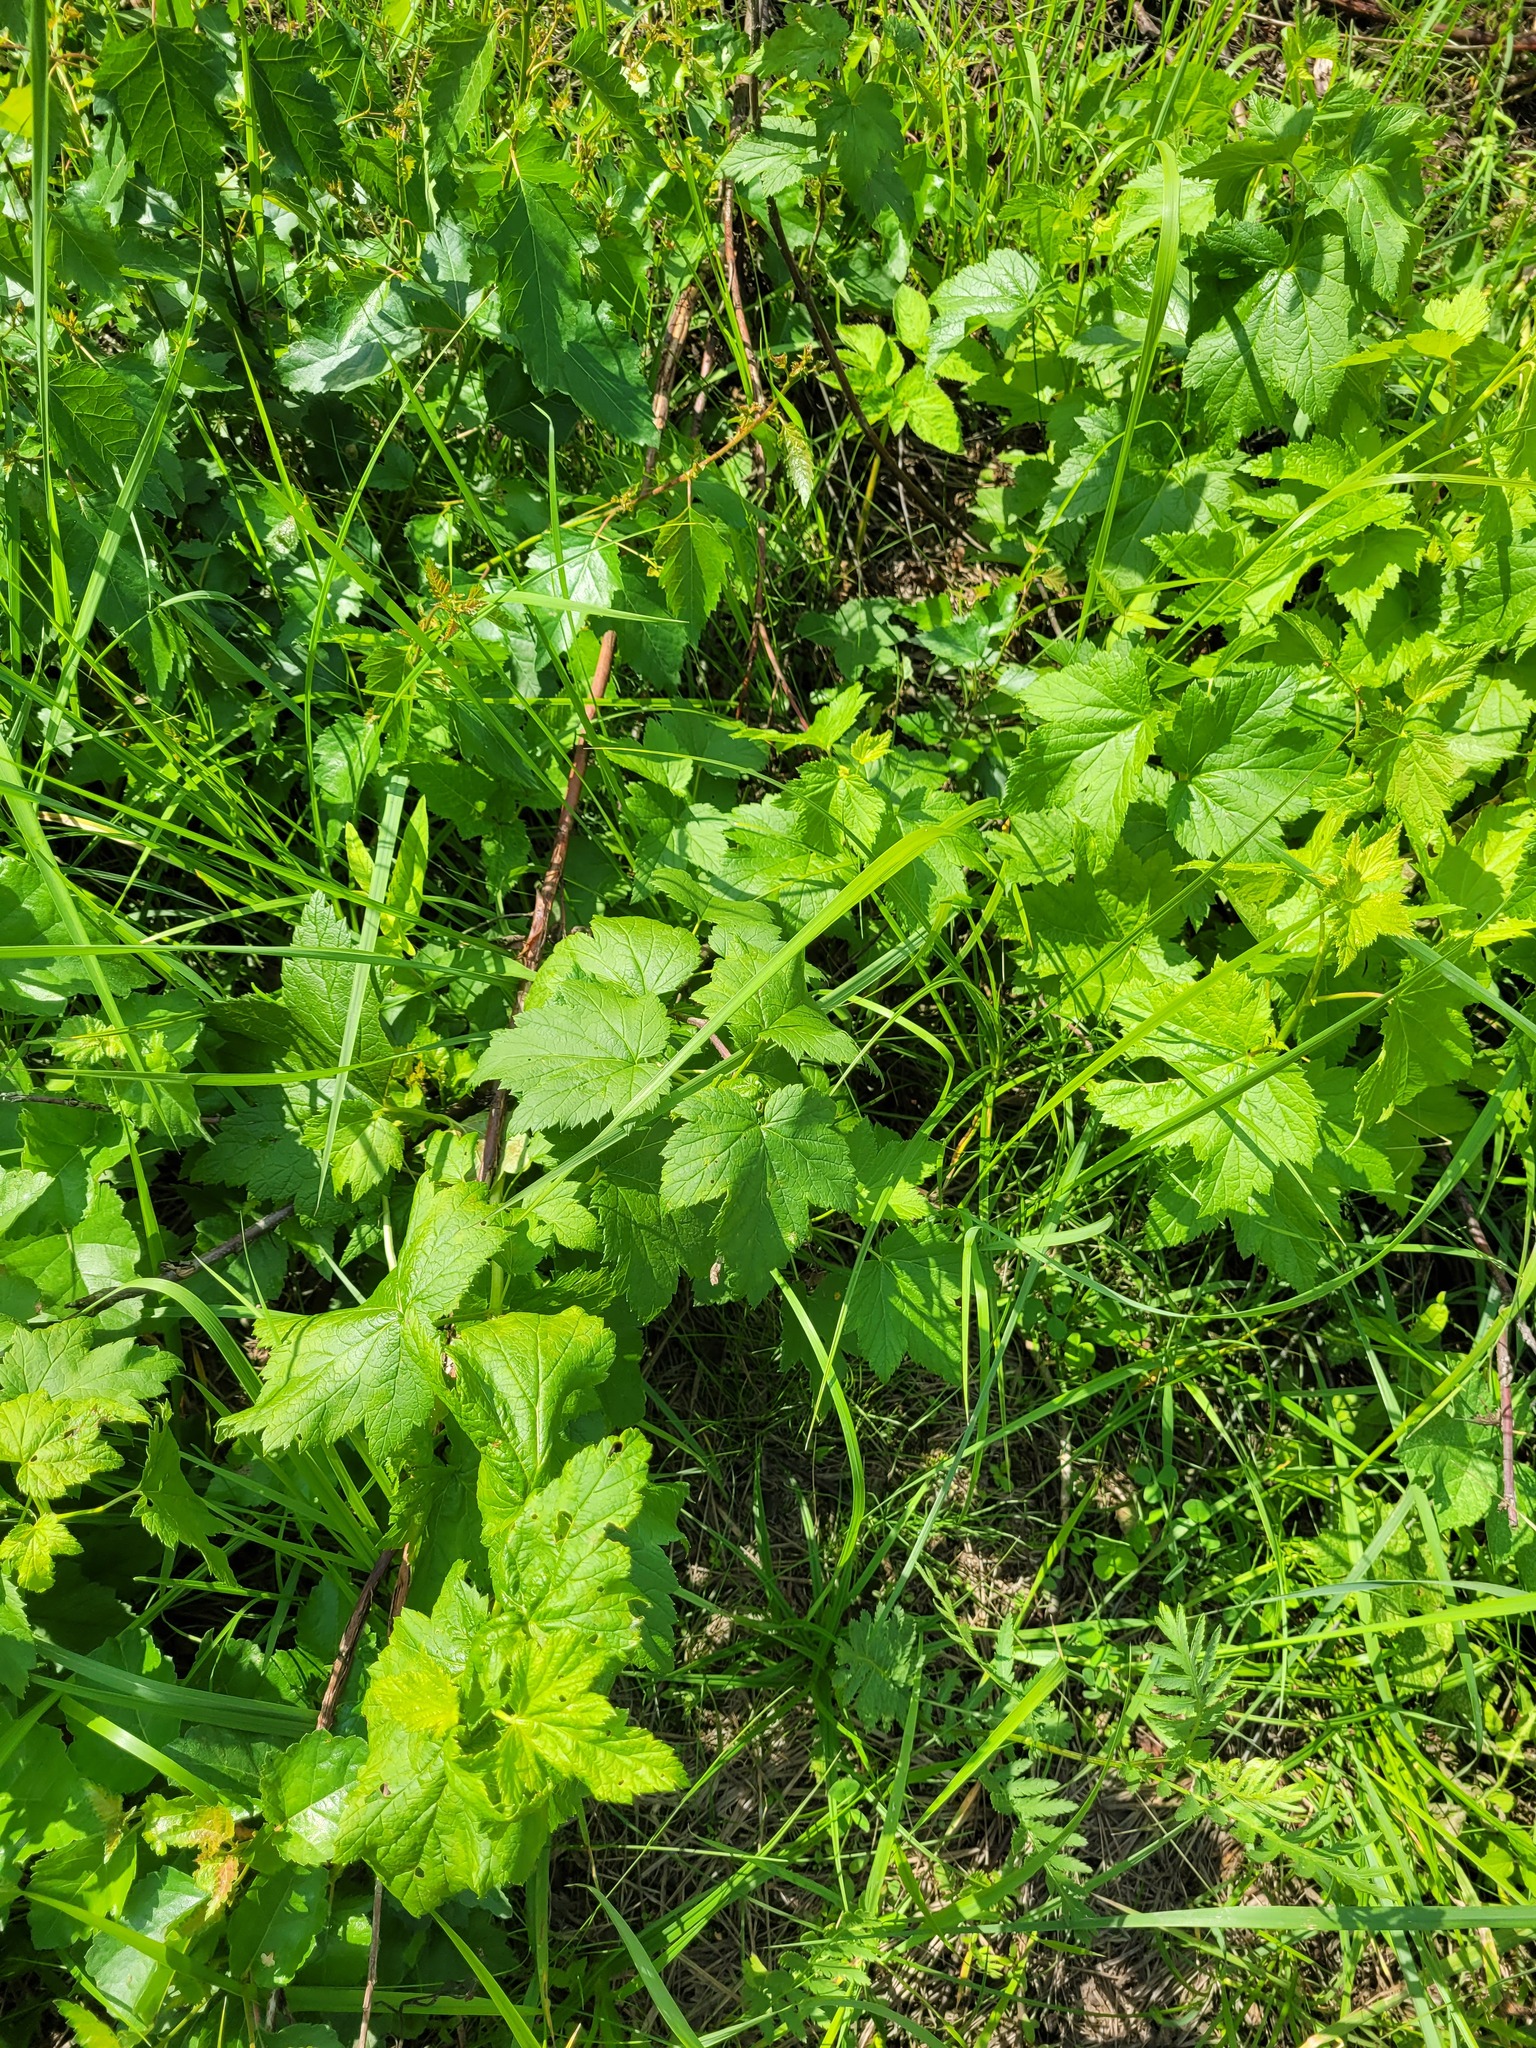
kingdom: Plantae
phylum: Tracheophyta
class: Magnoliopsida
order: Saxifragales
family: Grossulariaceae
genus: Ribes
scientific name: Ribes nigrum
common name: Black currant
